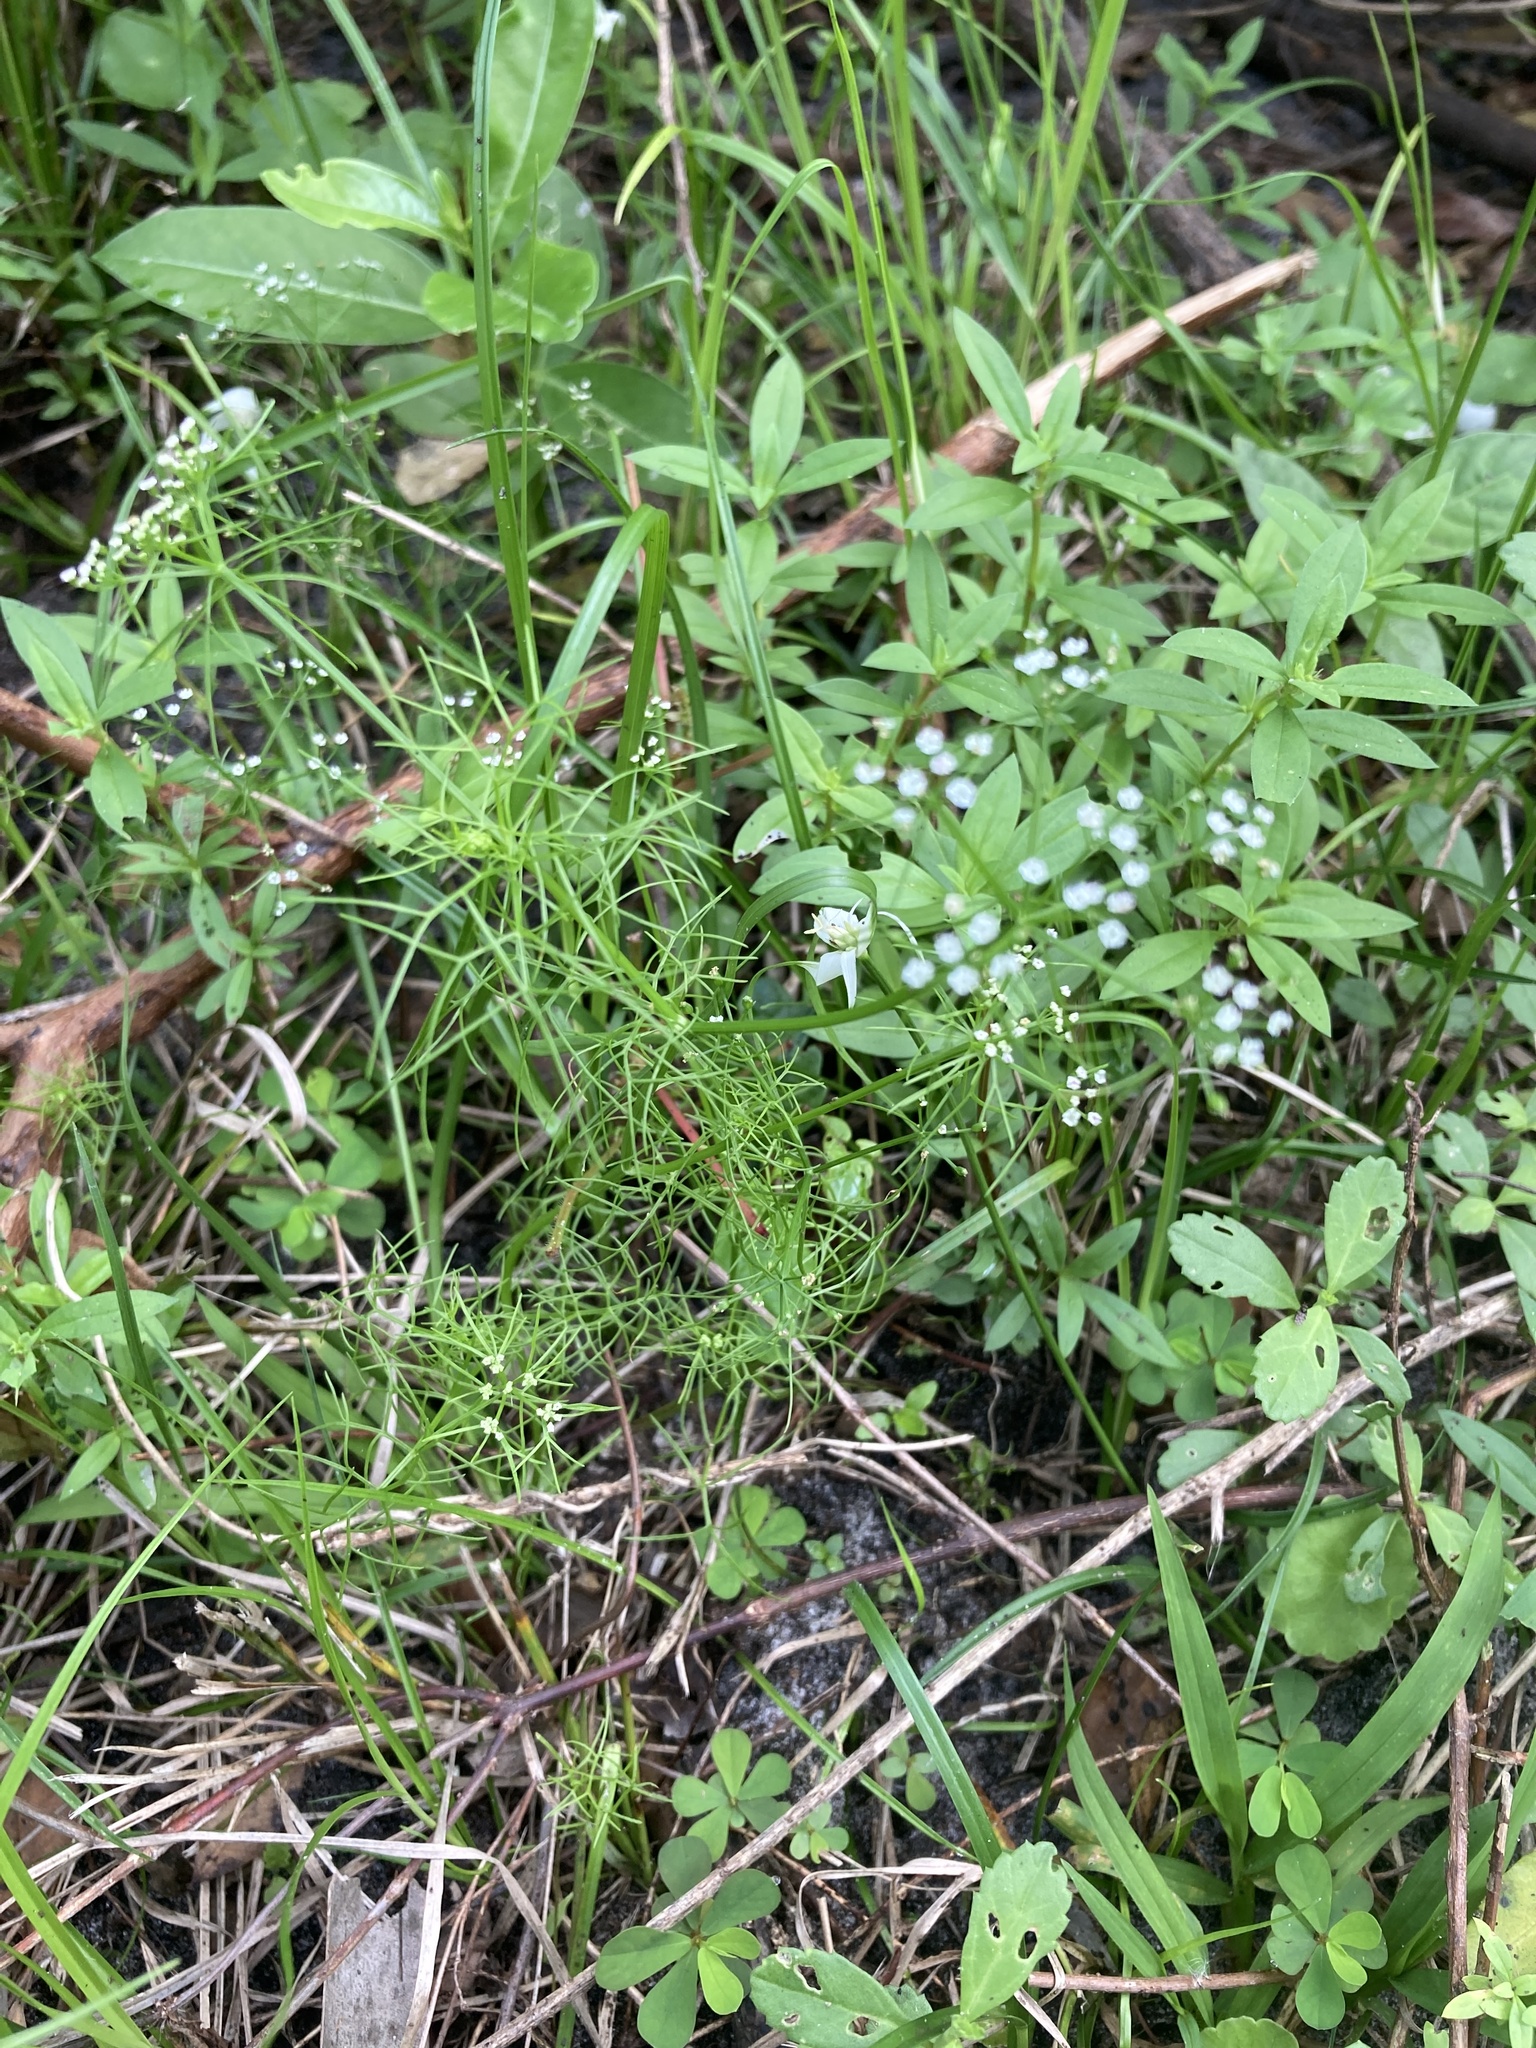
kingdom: Plantae
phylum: Tracheophyta
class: Magnoliopsida
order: Apiales
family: Apiaceae
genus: Ptilimnium
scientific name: Ptilimnium capillaceum
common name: Herbwilliam
